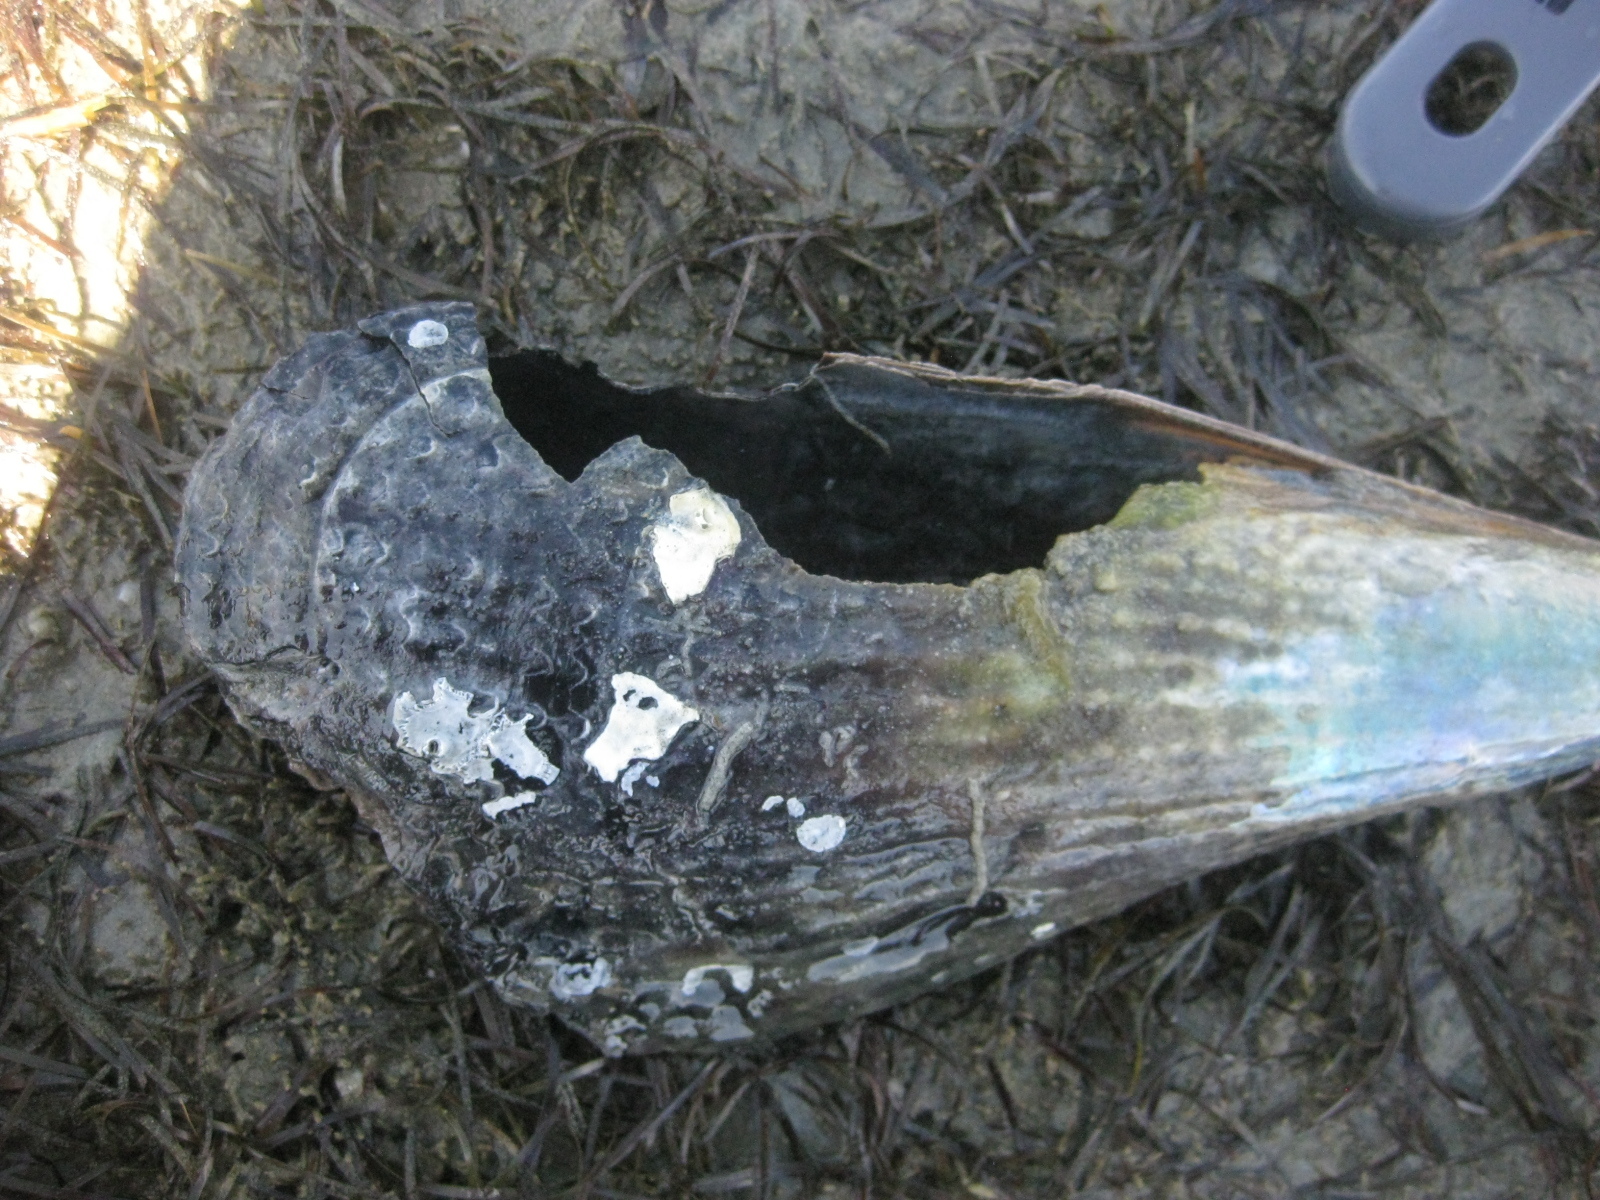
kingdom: Animalia
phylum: Mollusca
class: Bivalvia
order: Ostreida
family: Pinnidae
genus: Atrina
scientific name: Atrina zelandica
